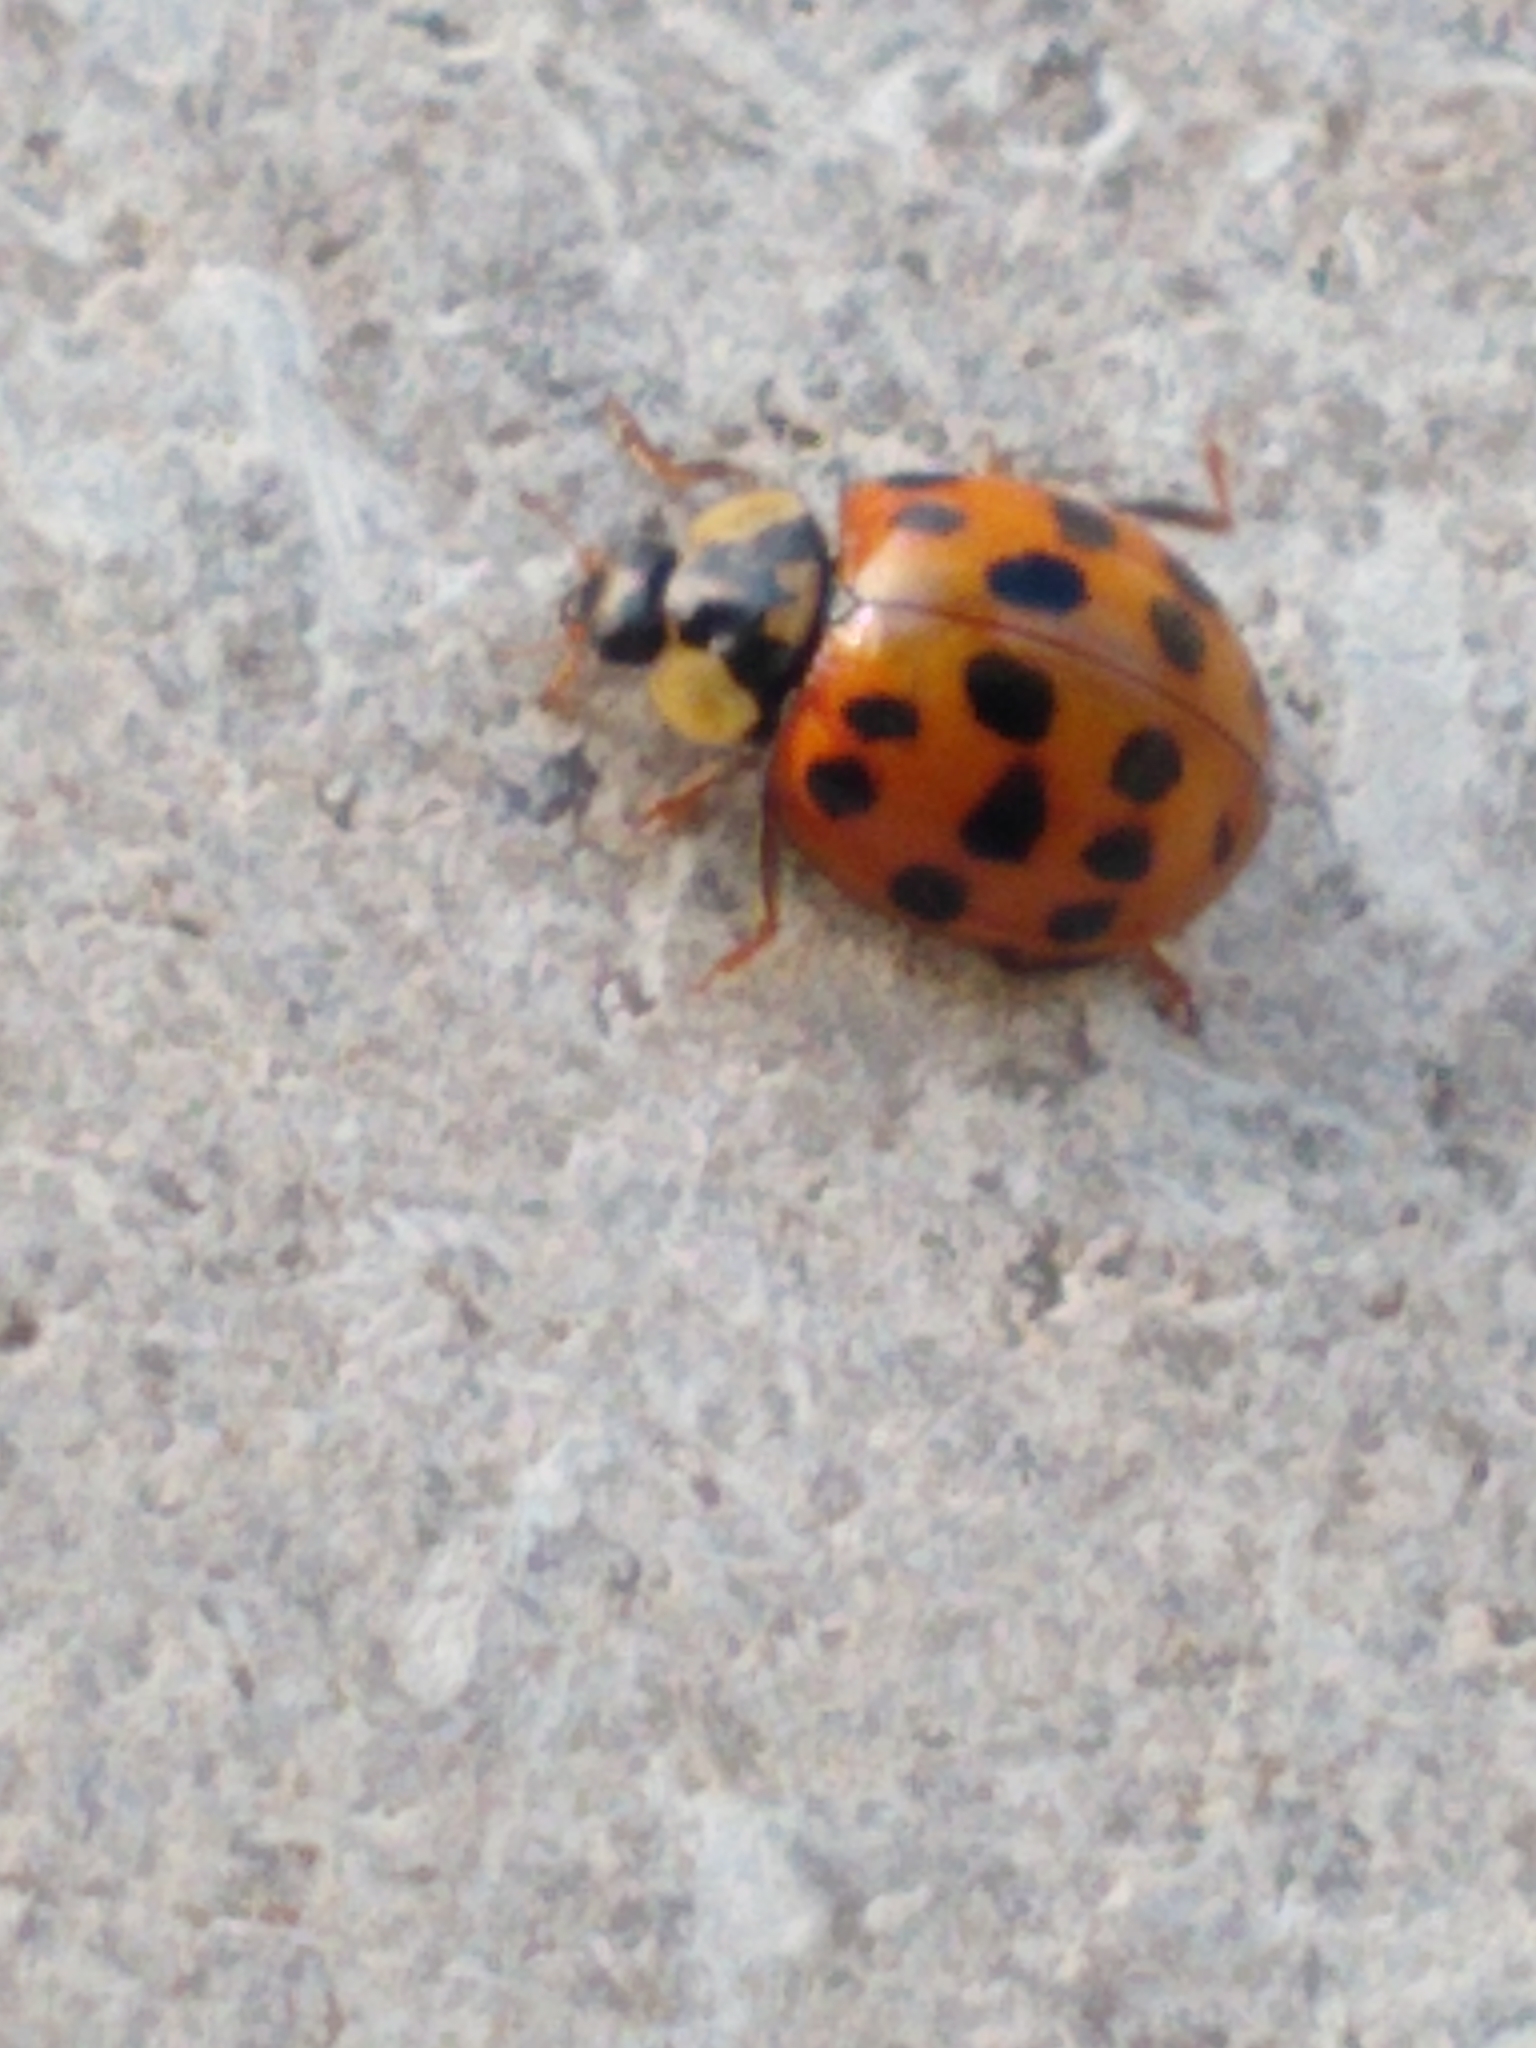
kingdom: Animalia
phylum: Arthropoda
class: Insecta
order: Coleoptera
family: Coccinellidae
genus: Harmonia
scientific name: Harmonia axyridis
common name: Harlequin ladybird
